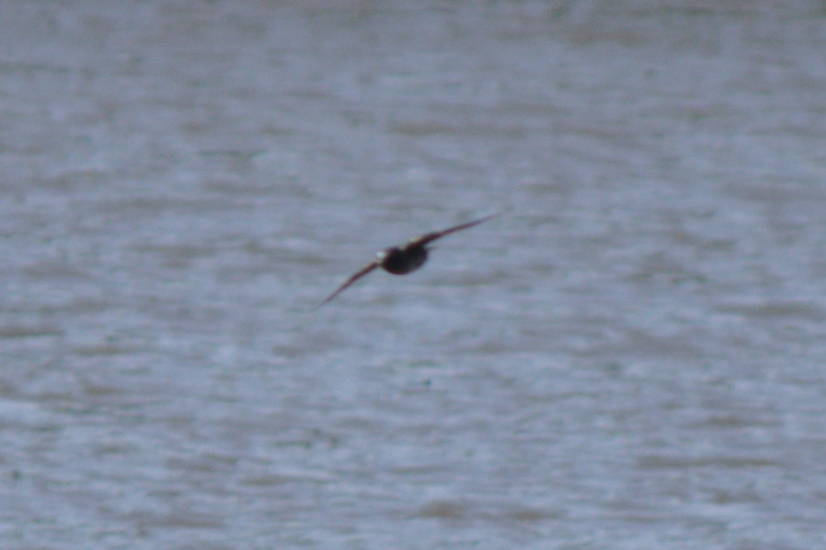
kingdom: Animalia
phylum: Chordata
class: Aves
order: Passeriformes
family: Hirundinidae
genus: Progne
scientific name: Progne subis
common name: Purple martin
